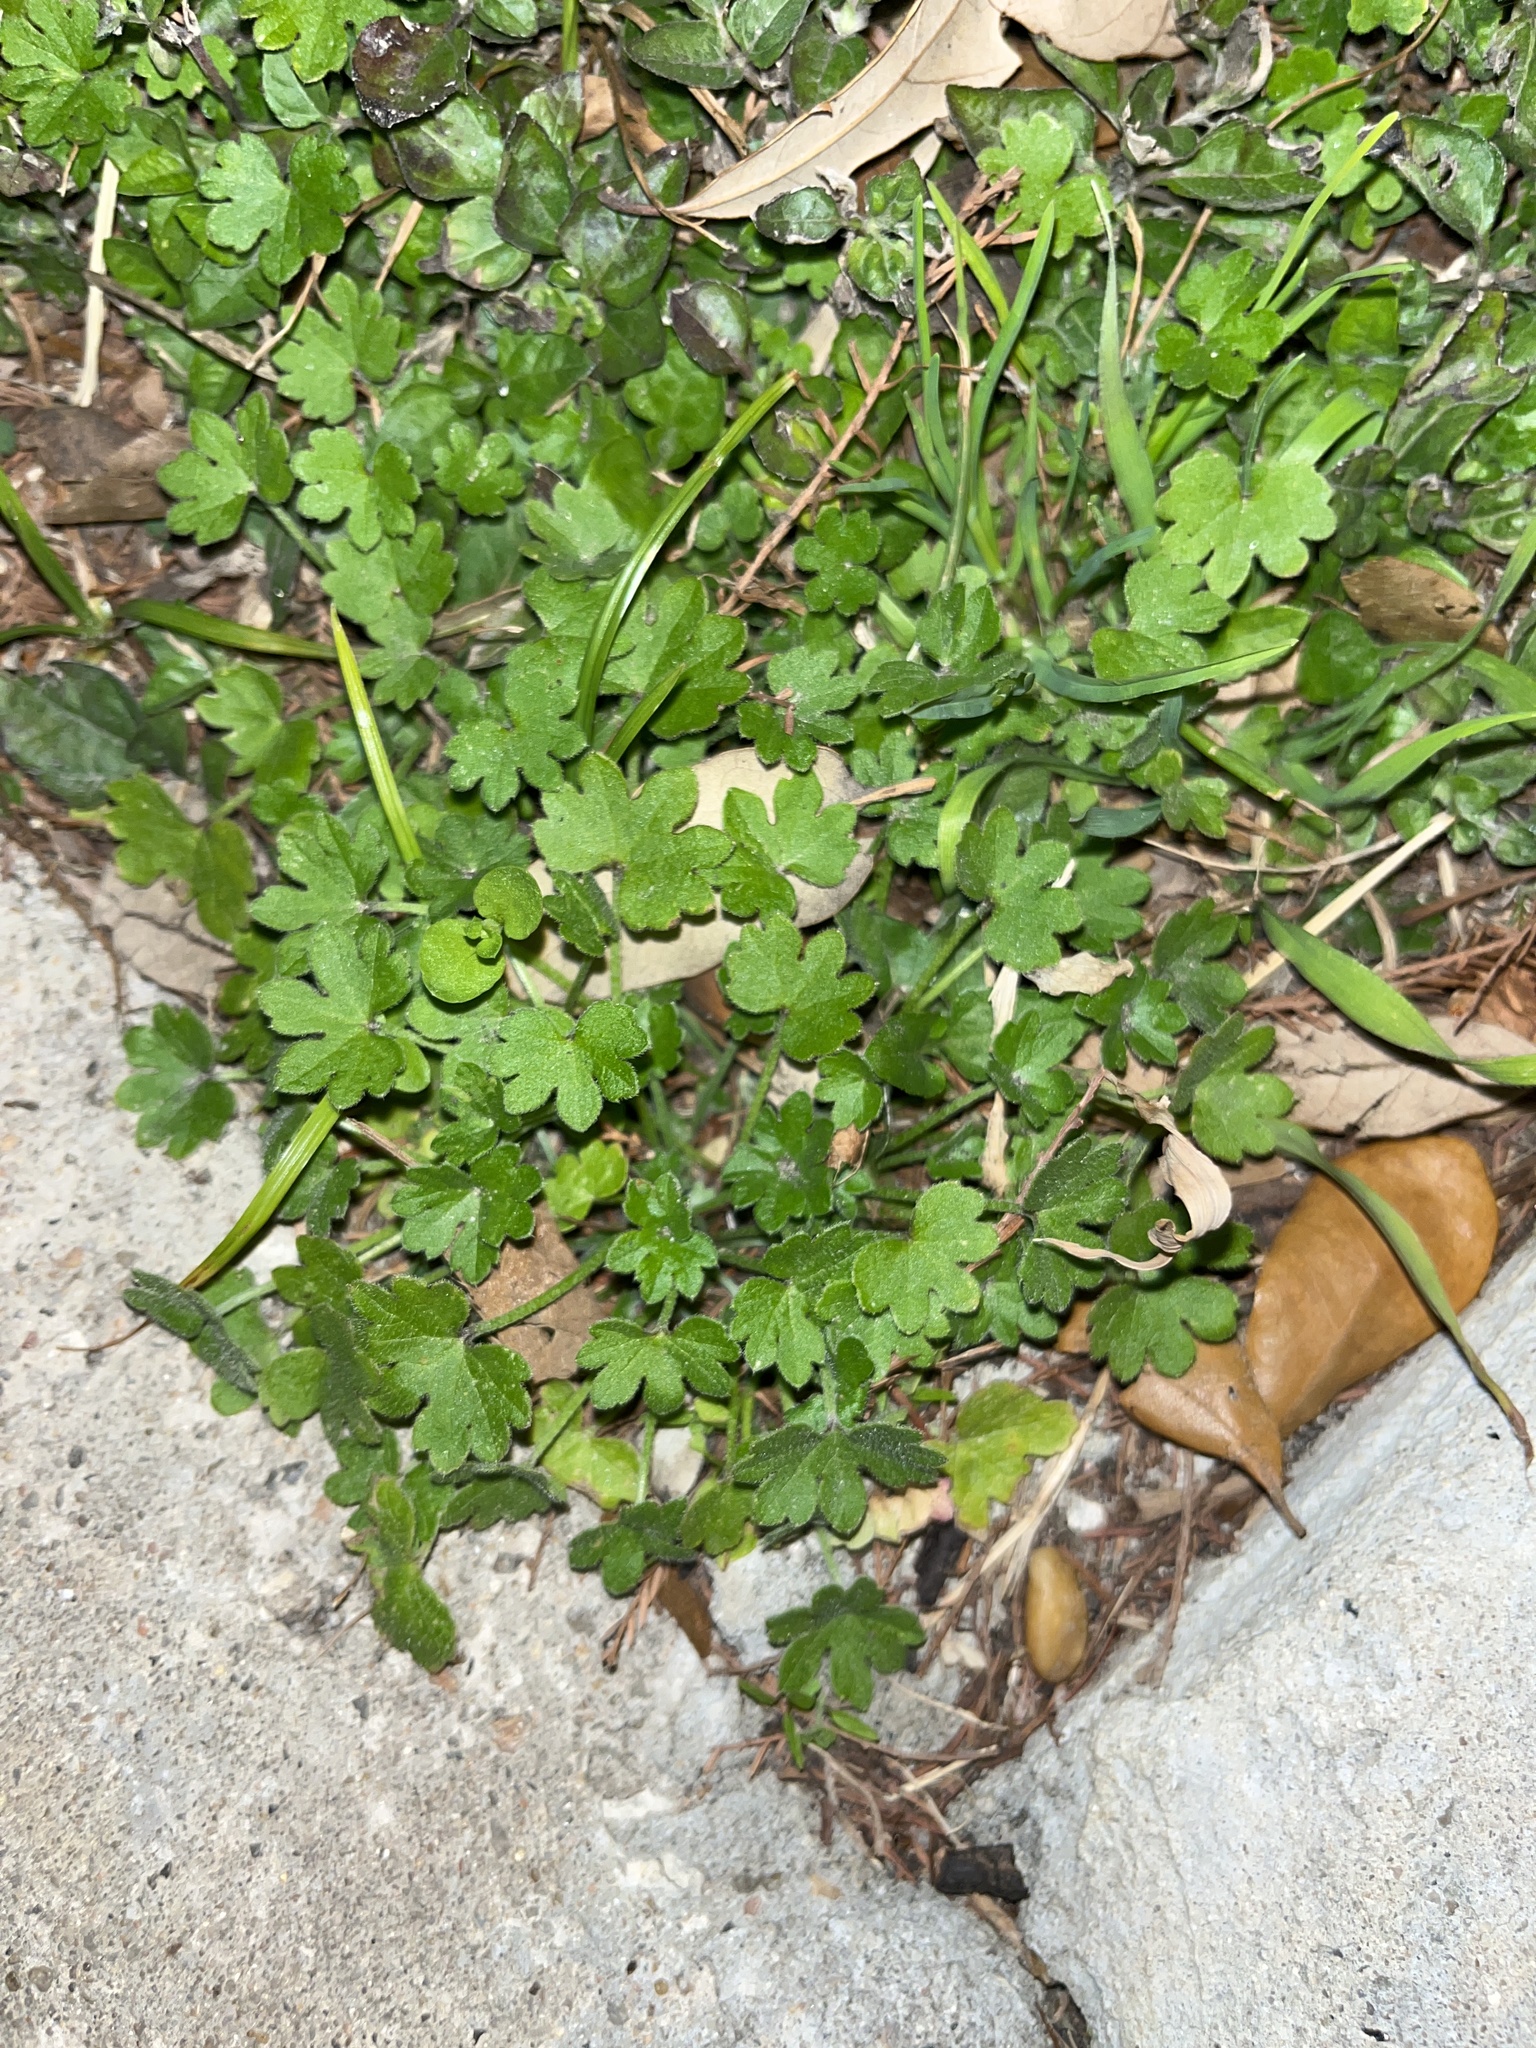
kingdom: Plantae
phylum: Tracheophyta
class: Magnoliopsida
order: Apiales
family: Apiaceae
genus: Bowlesia
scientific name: Bowlesia incana
